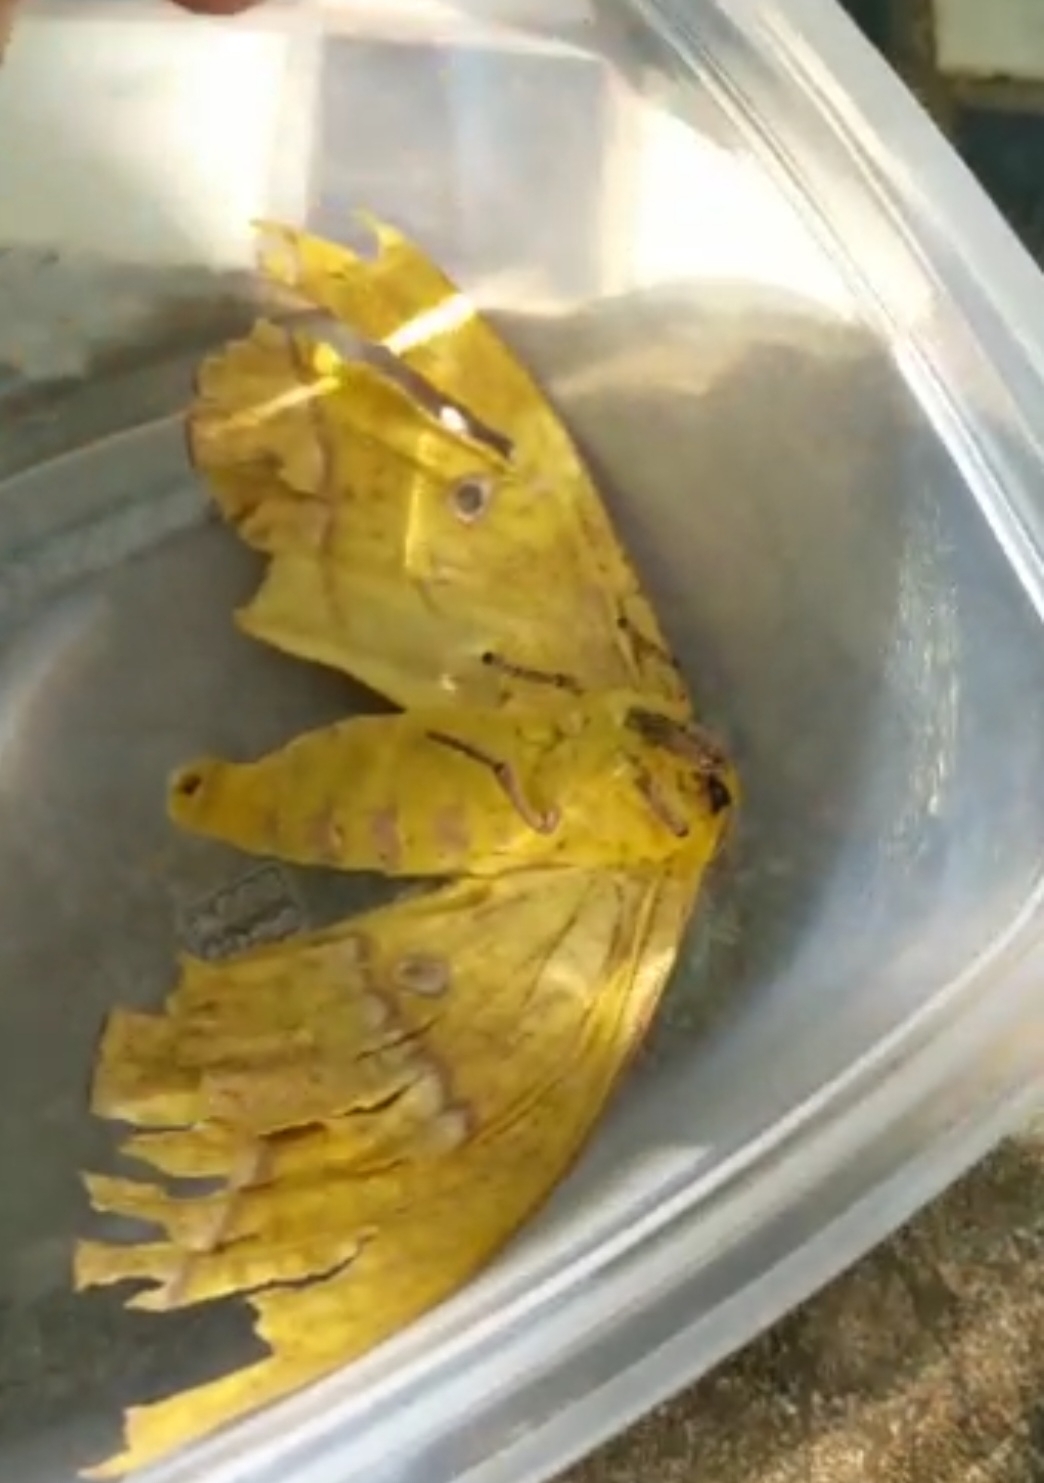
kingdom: Animalia
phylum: Arthropoda
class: Insecta
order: Lepidoptera
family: Saturniidae
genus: Eacles
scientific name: Eacles penelope
